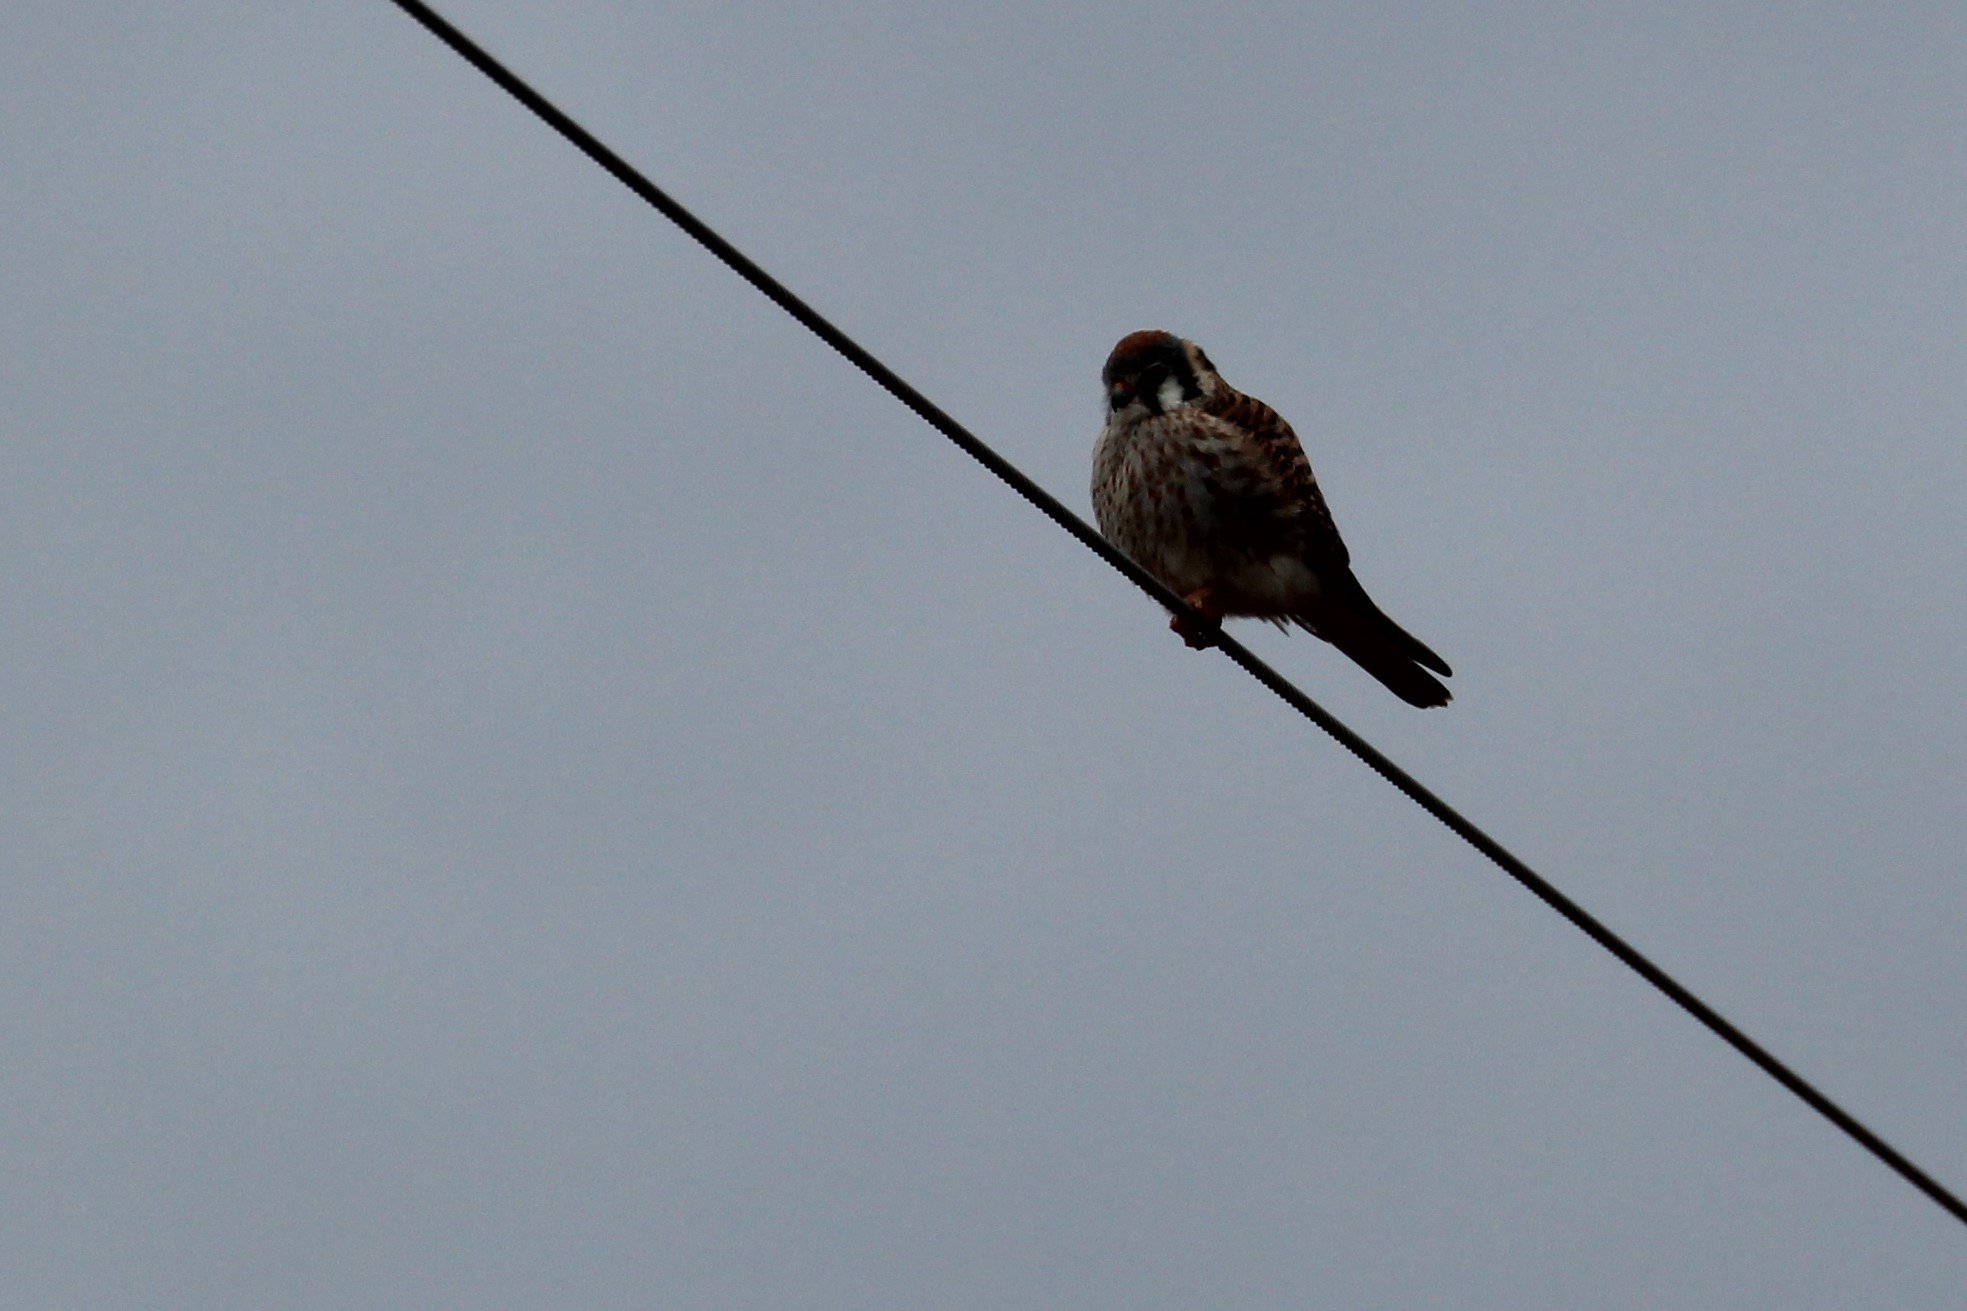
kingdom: Animalia
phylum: Chordata
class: Aves
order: Falconiformes
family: Falconidae
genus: Falco
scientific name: Falco sparverius
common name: American kestrel
